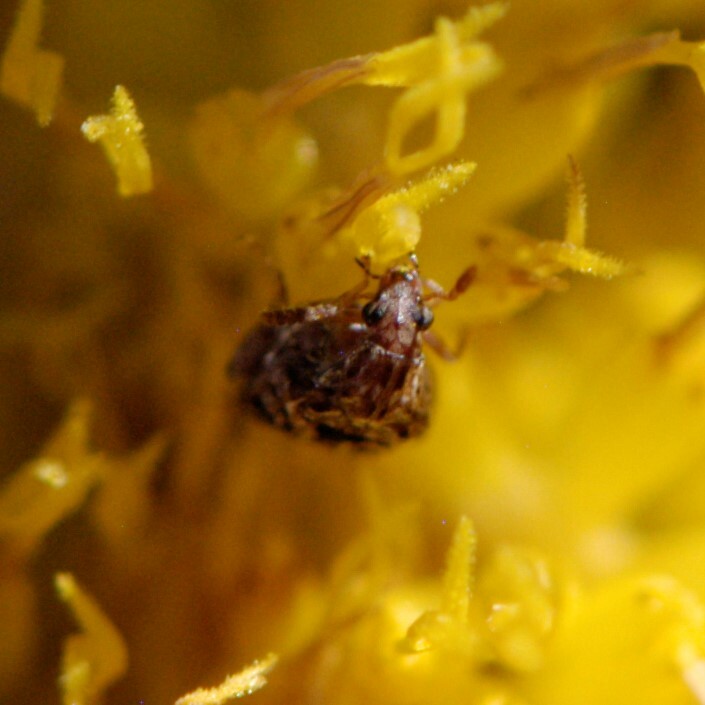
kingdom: Animalia
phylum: Arthropoda
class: Insecta
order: Coleoptera
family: Chrysomelidae
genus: Gibbobruchus
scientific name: Gibbobruchus mimus
